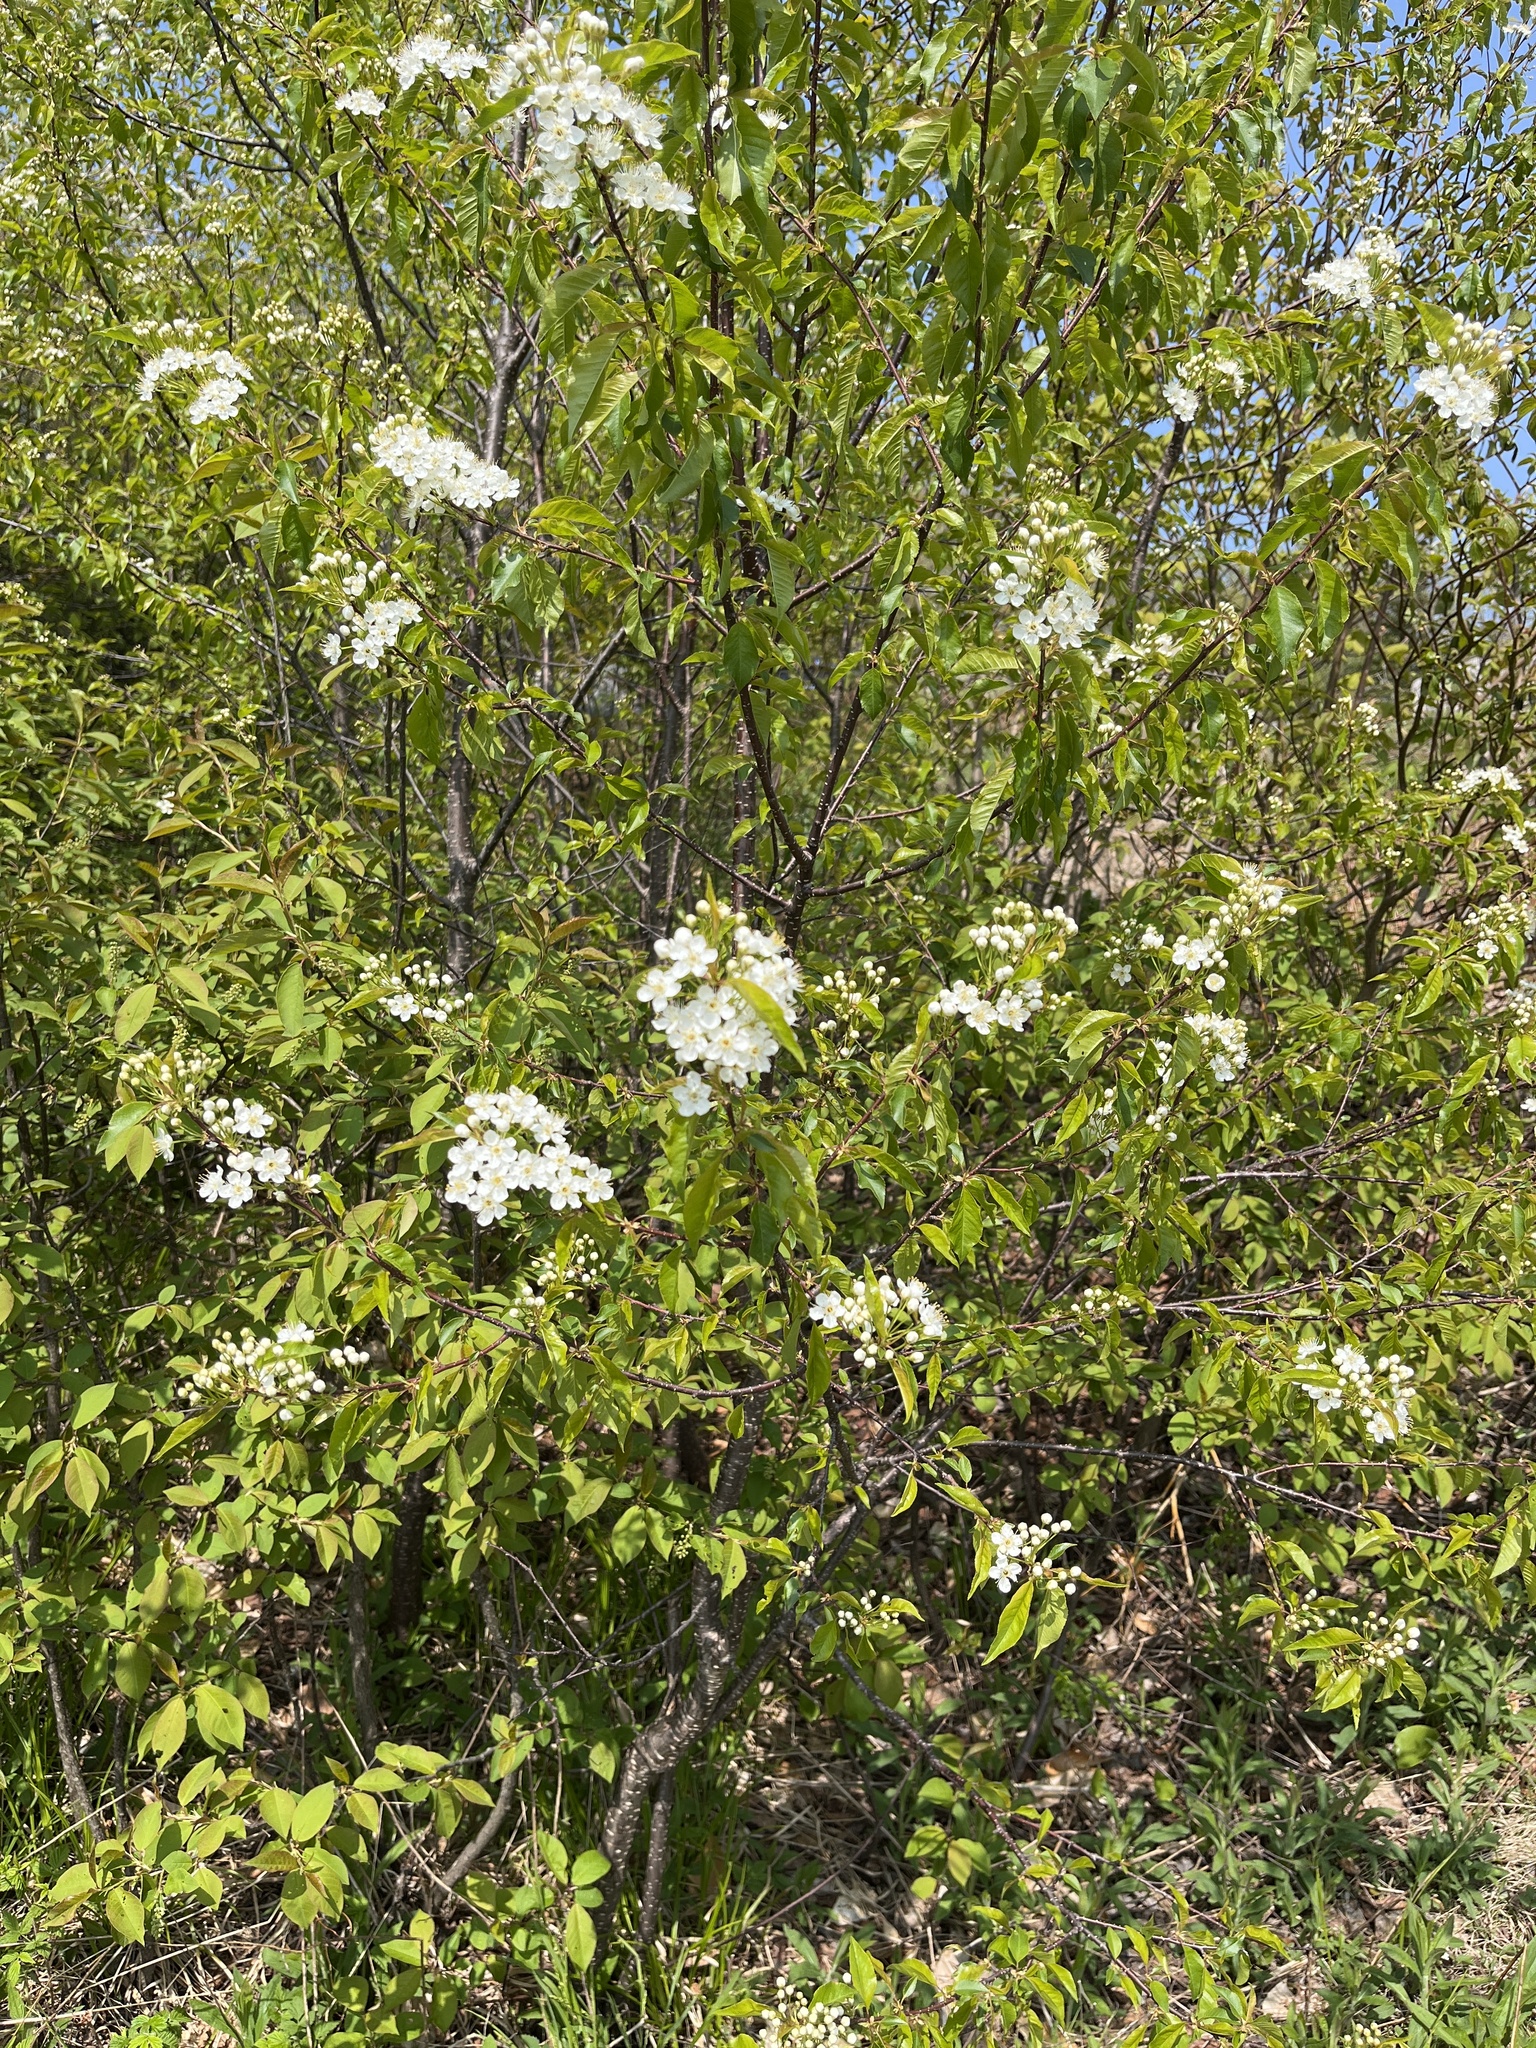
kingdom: Plantae
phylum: Tracheophyta
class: Magnoliopsida
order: Rosales
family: Rosaceae
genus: Prunus
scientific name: Prunus pensylvanica
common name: Pin cherry
